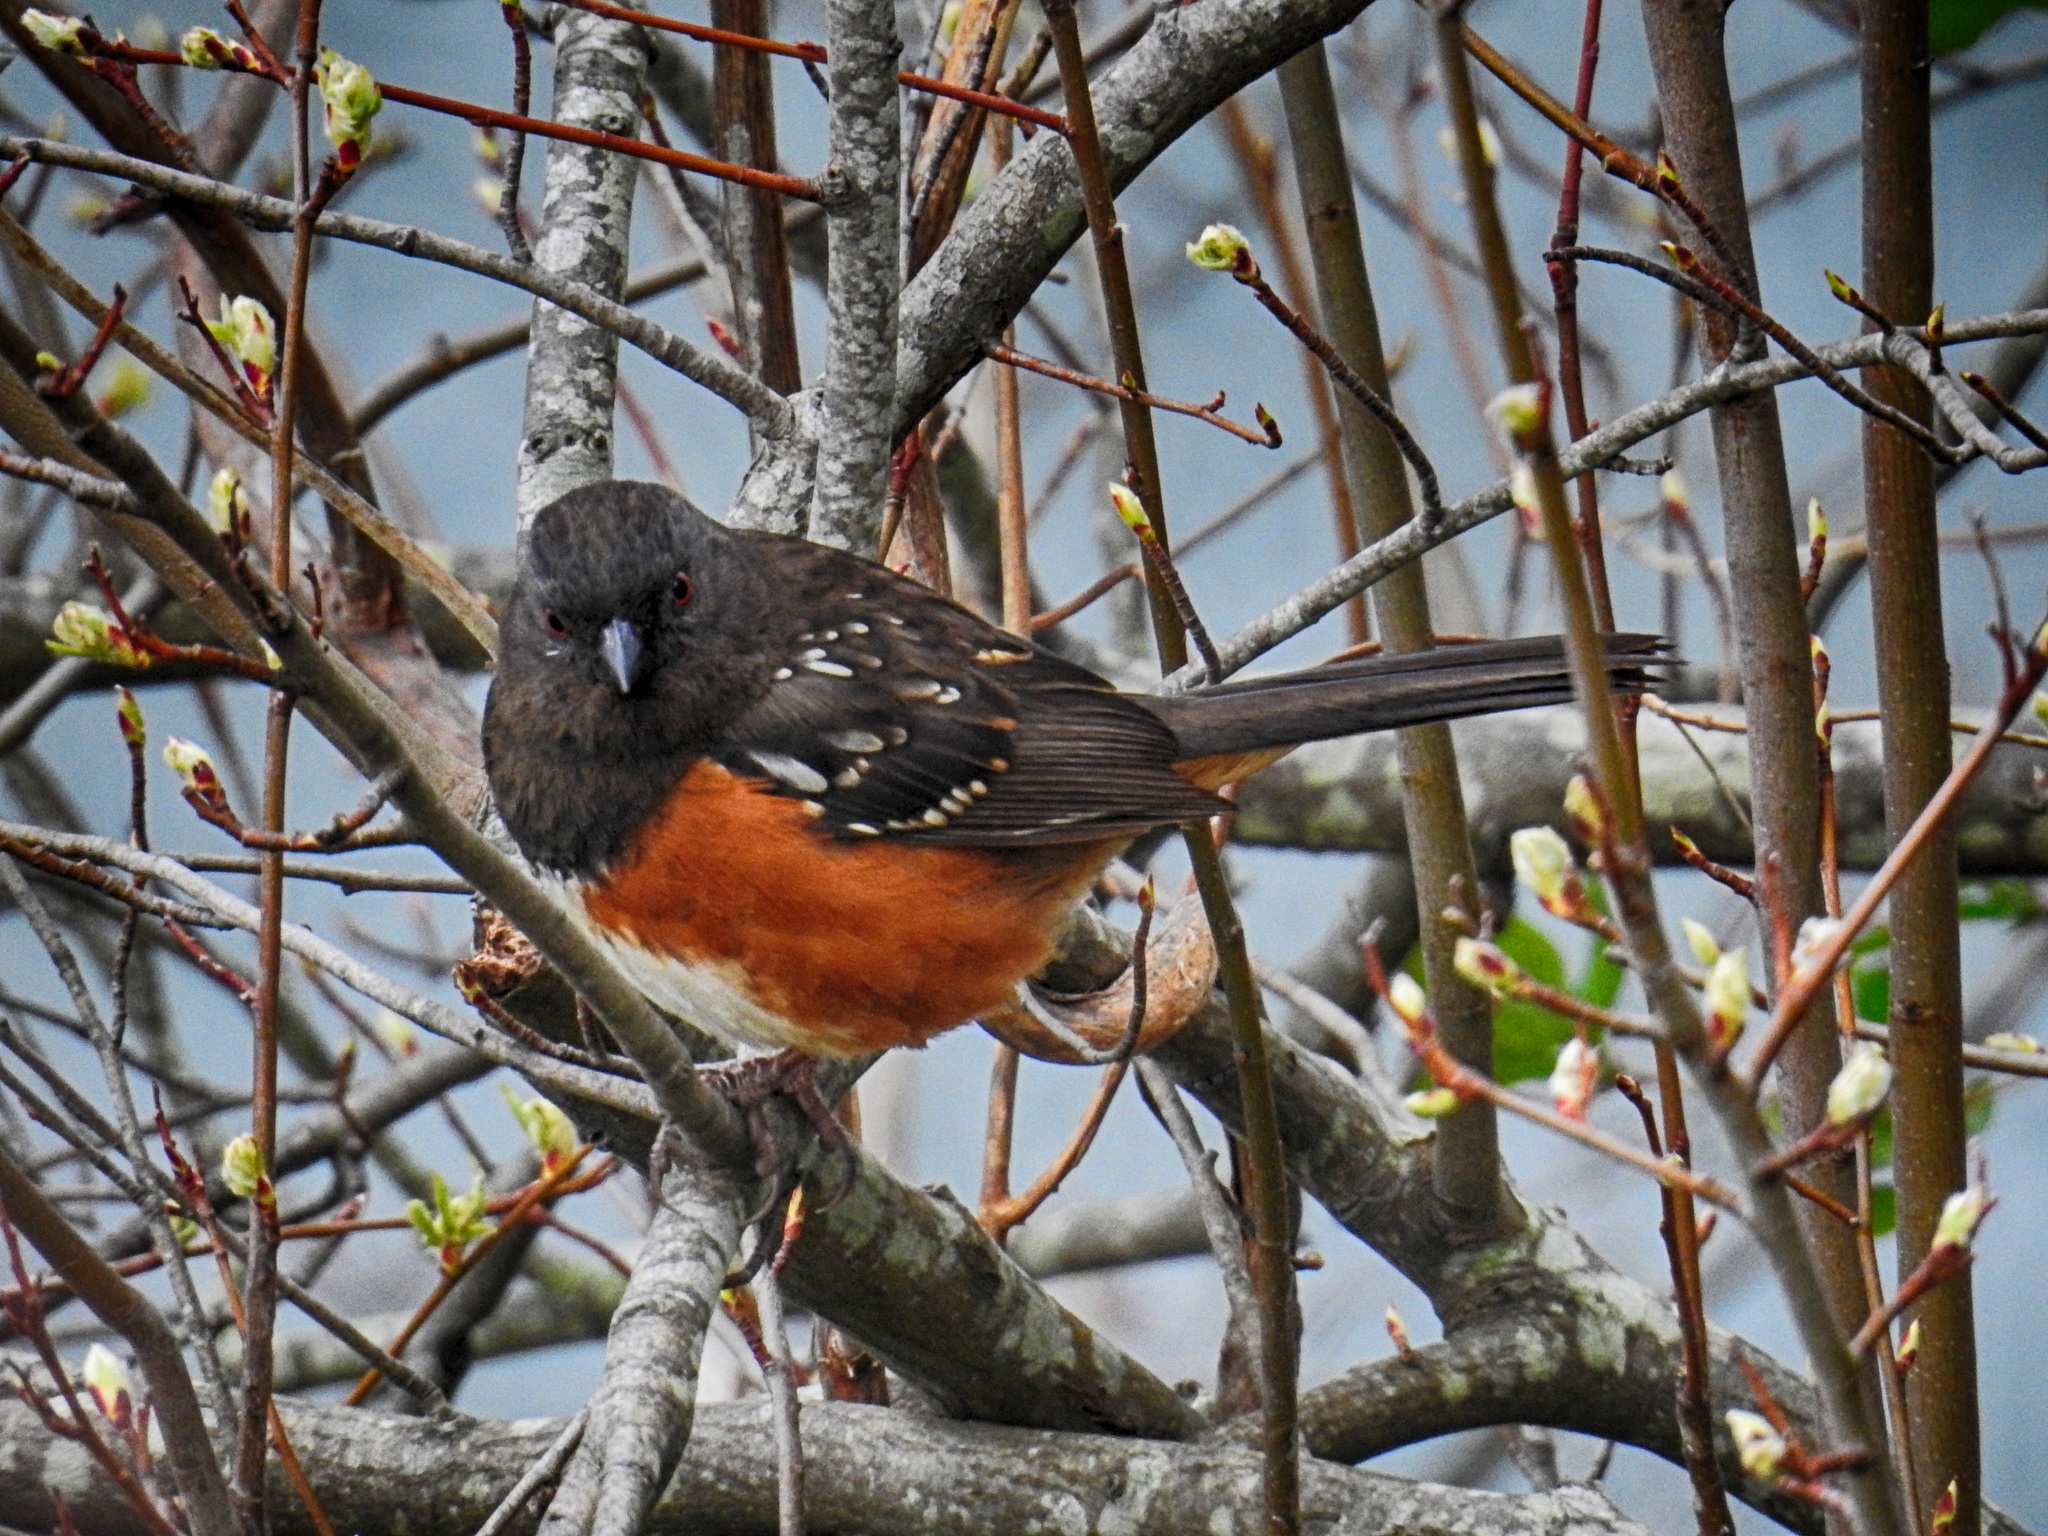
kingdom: Animalia
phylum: Chordata
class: Aves
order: Passeriformes
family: Passerellidae
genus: Pipilo
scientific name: Pipilo maculatus
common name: Spotted towhee
